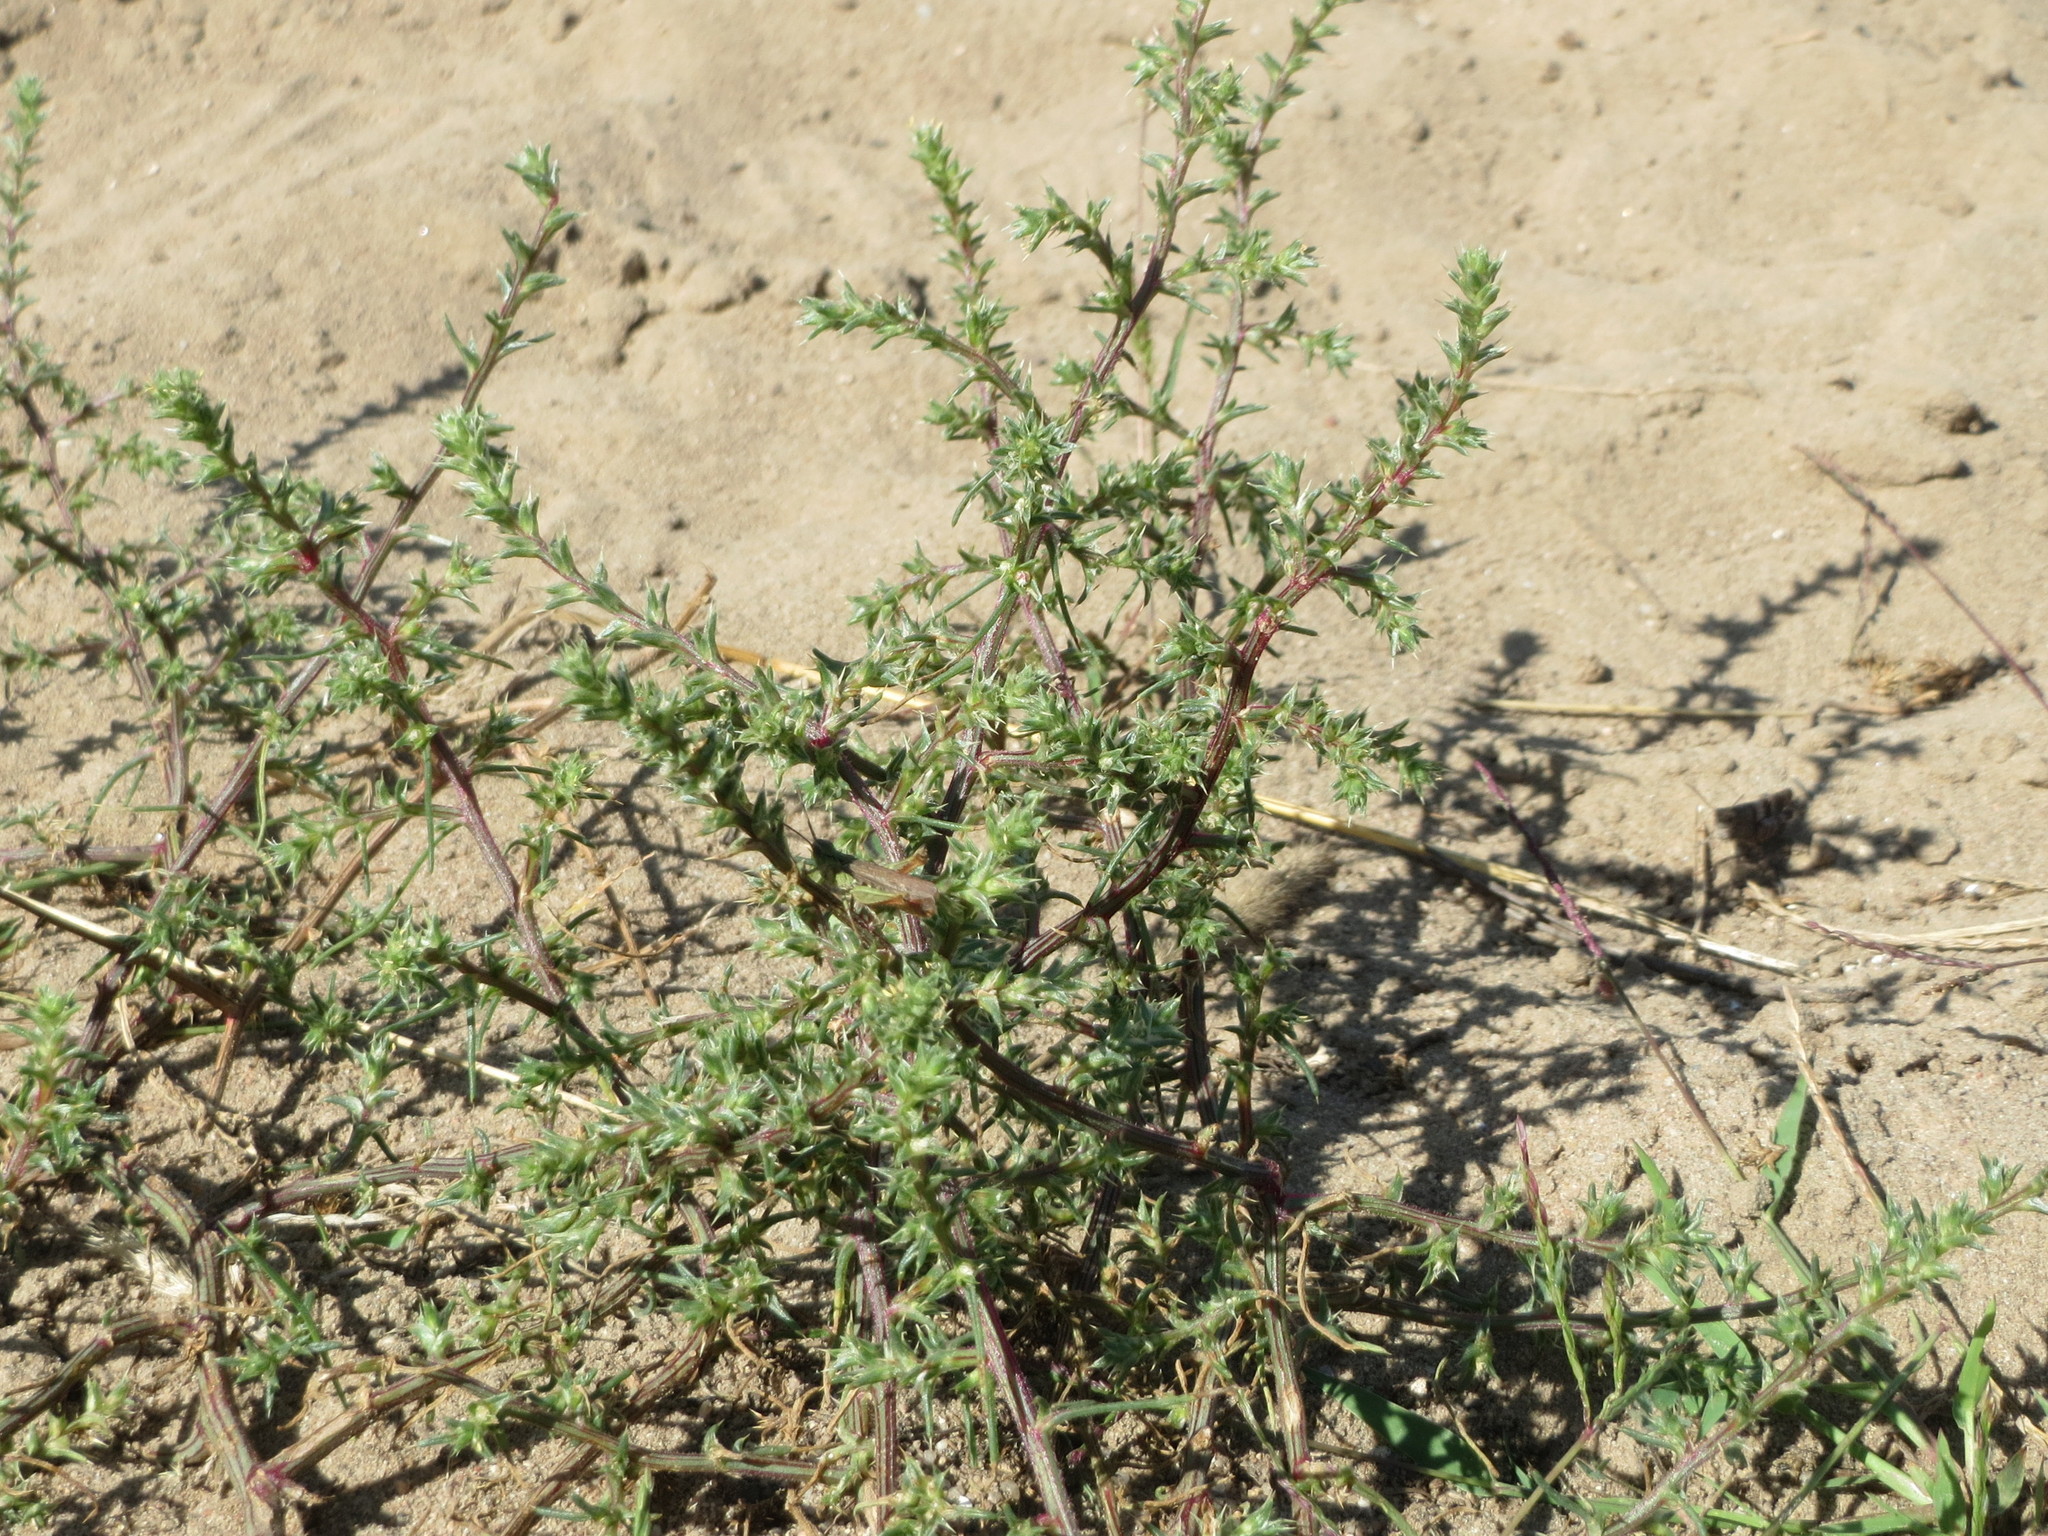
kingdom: Plantae
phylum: Tracheophyta
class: Magnoliopsida
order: Caryophyllales
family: Amaranthaceae
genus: Salsola
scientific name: Salsola tragus
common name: Prickly russian thistle
